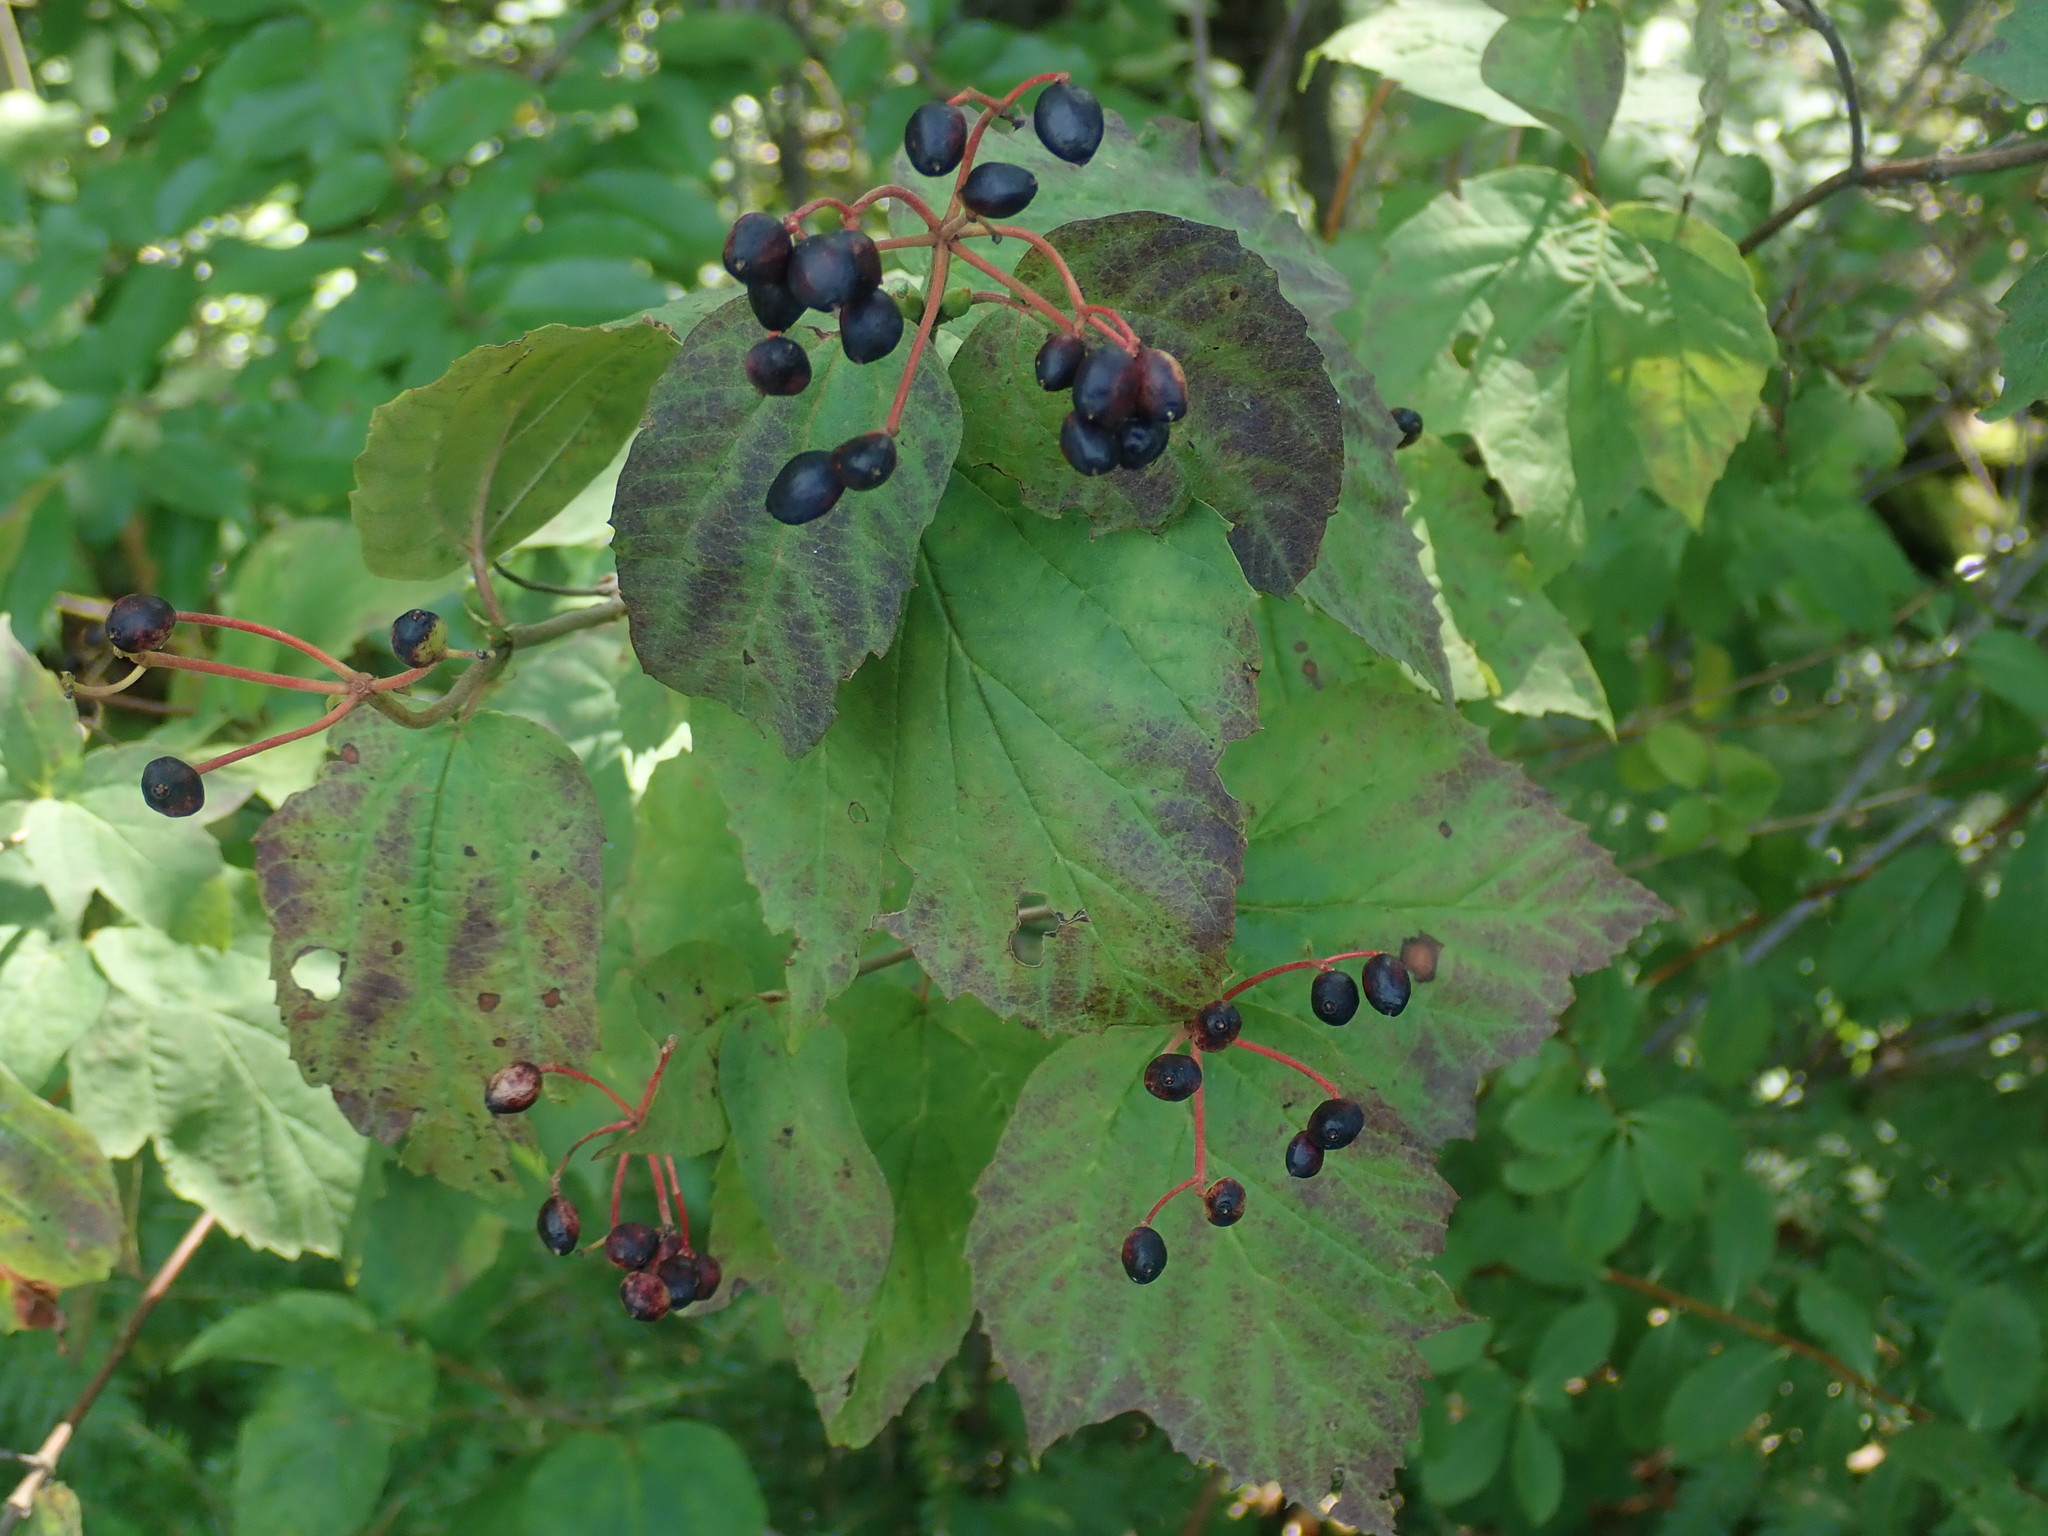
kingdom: Plantae
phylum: Tracheophyta
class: Magnoliopsida
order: Dipsacales
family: Viburnaceae
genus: Viburnum
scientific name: Viburnum acerifolium
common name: Dockmackie
